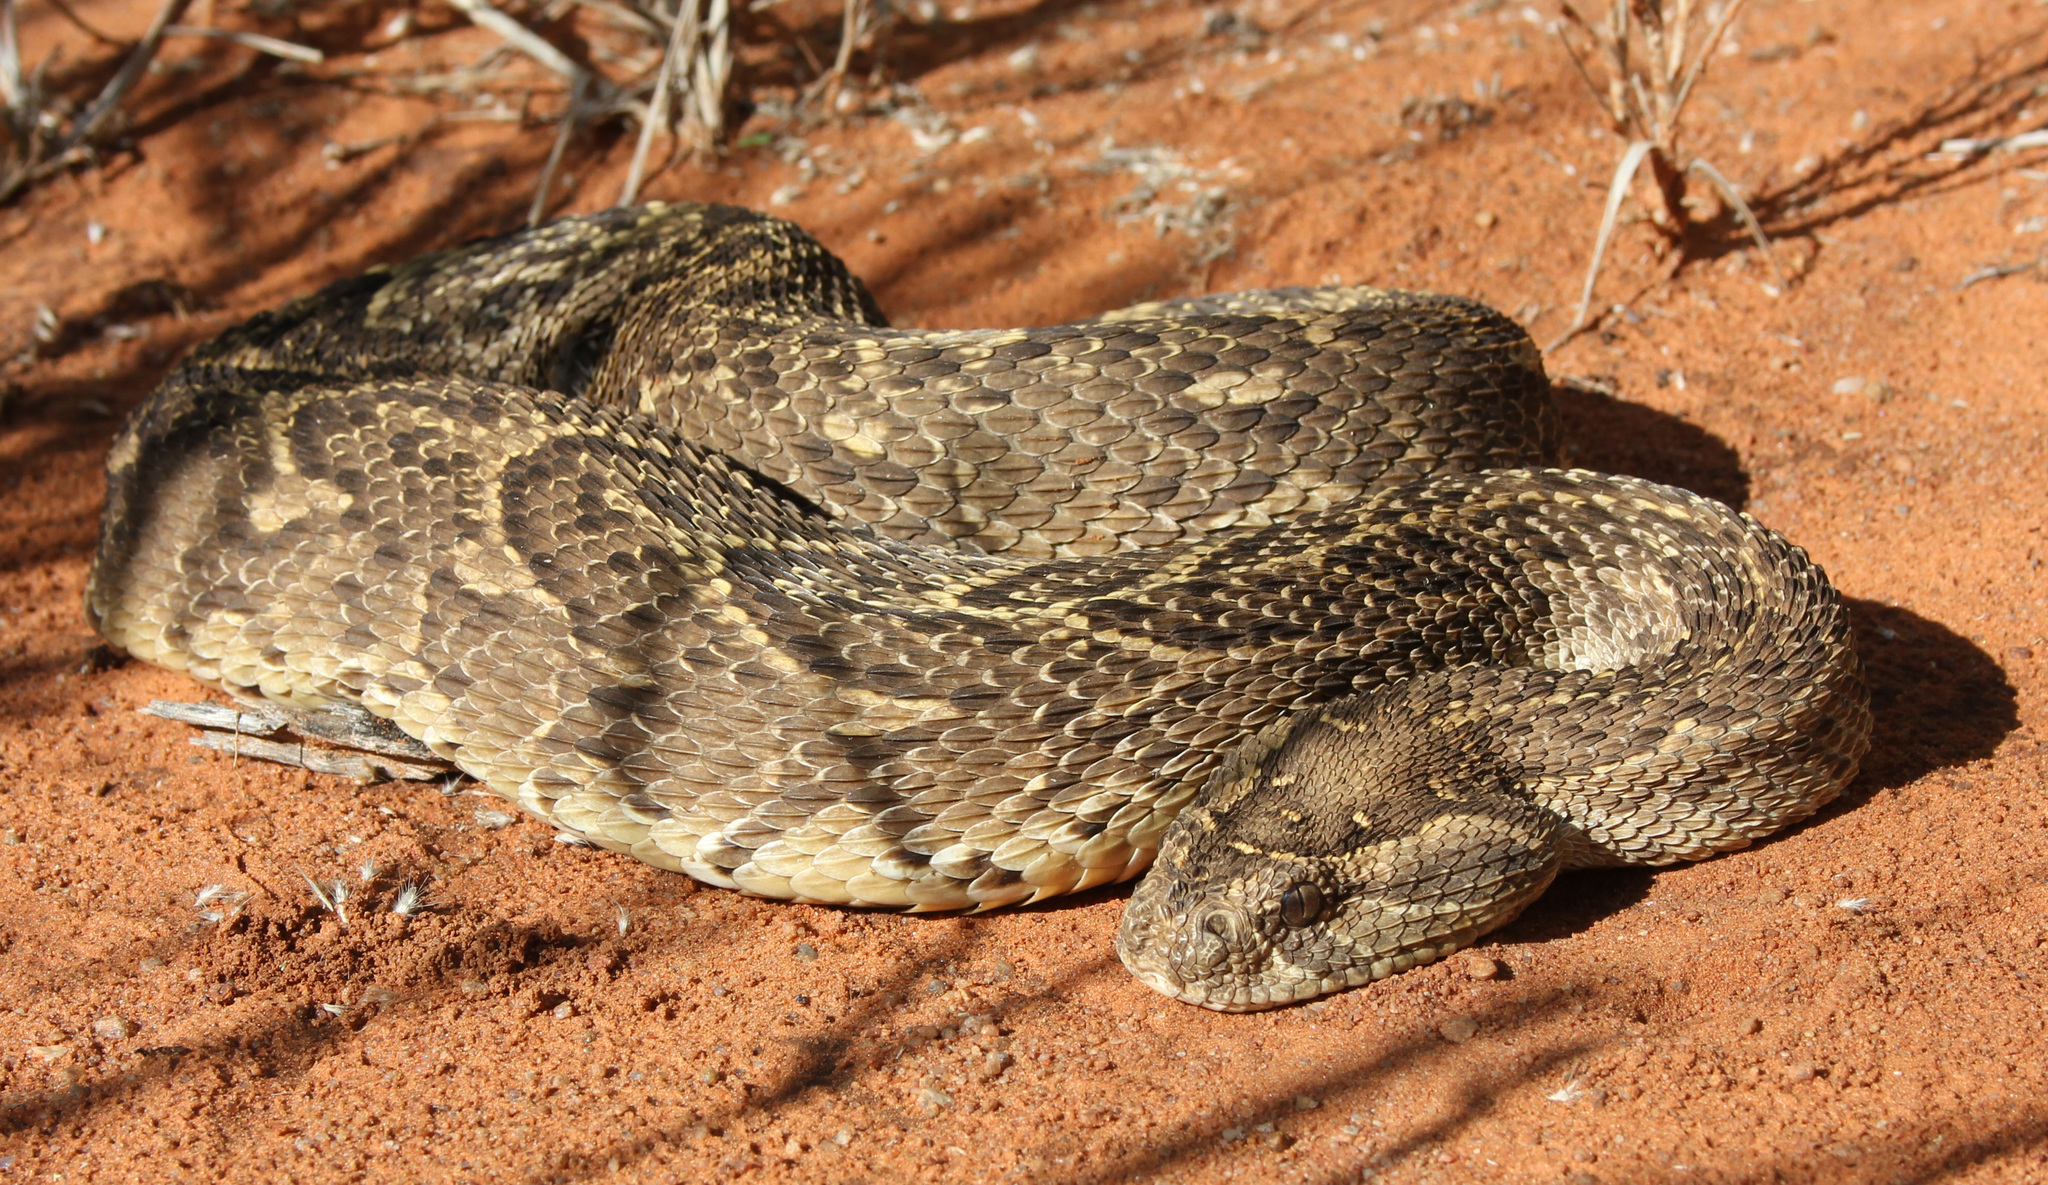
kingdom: Animalia
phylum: Chordata
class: Squamata
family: Viperidae
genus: Bitis
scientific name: Bitis arietans
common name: Puff adder
